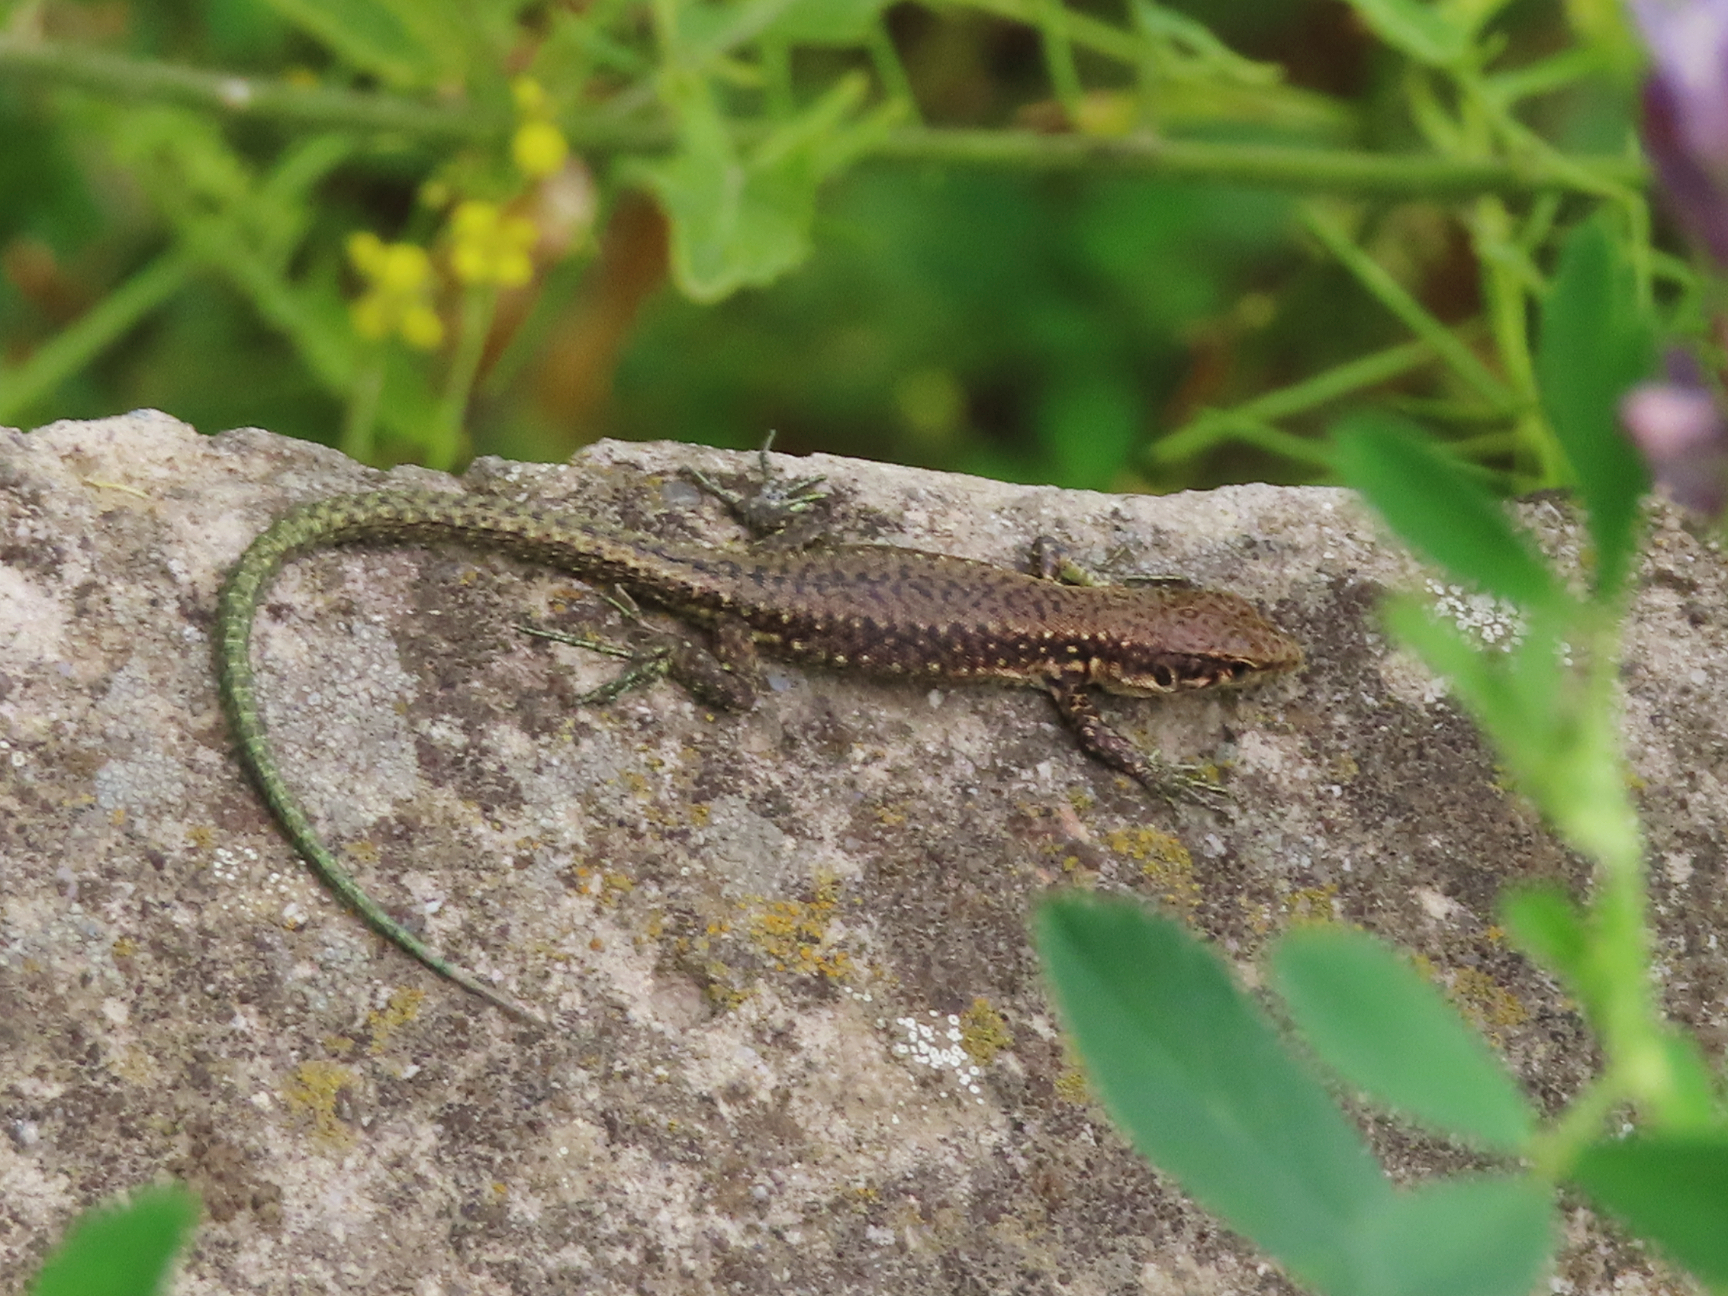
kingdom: Animalia
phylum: Chordata
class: Squamata
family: Lacertidae
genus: Darevskia
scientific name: Darevskia armeniaca
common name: Armenian lizard
